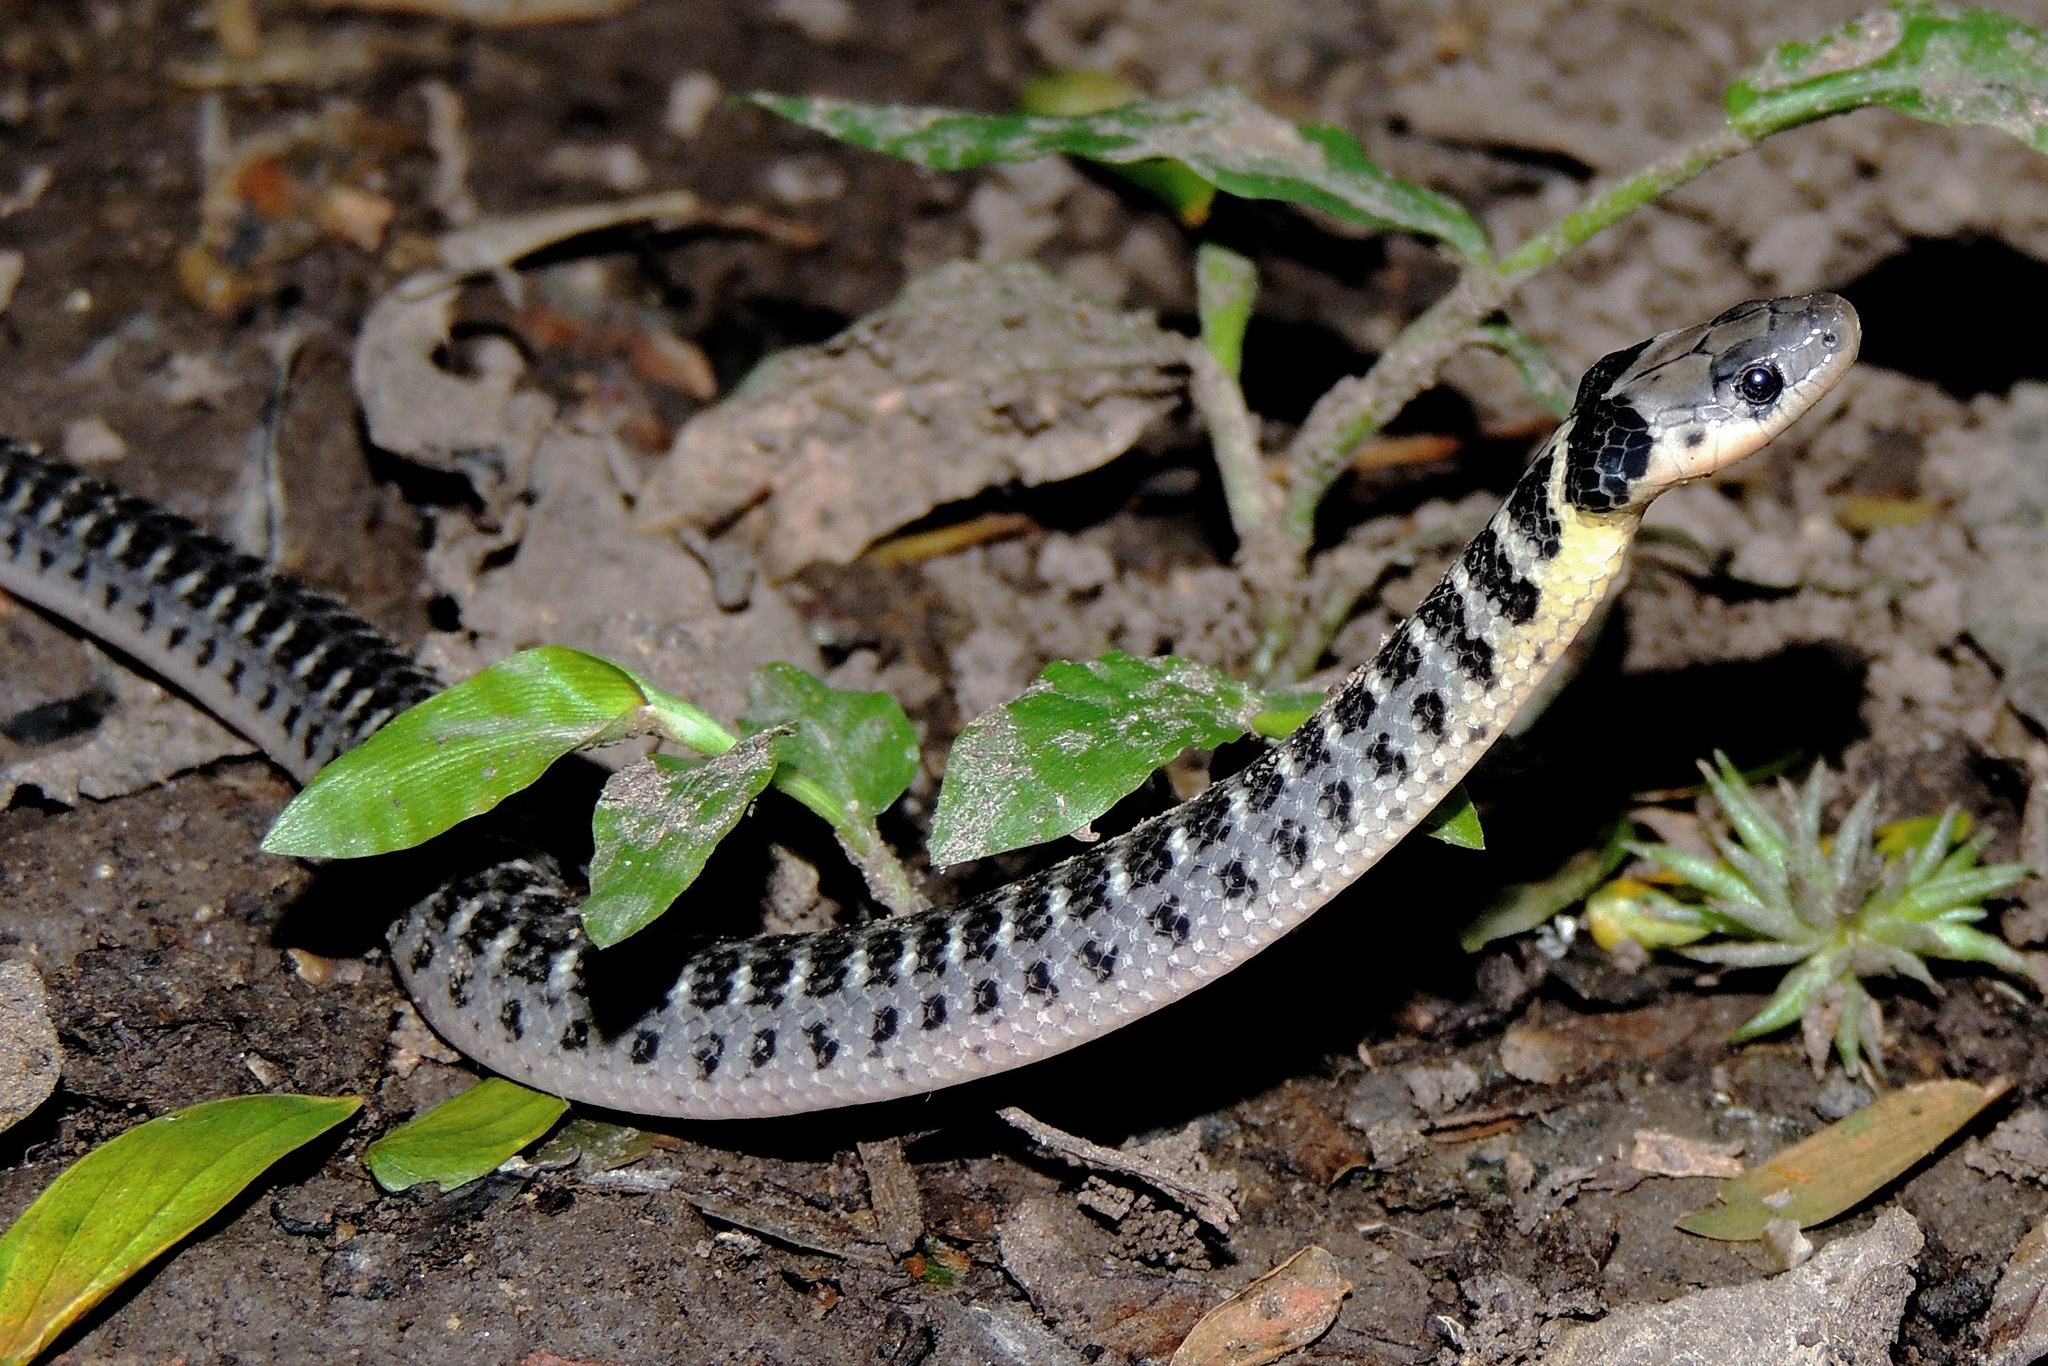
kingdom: Animalia
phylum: Chordata
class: Squamata
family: Colubridae
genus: Erythrolamprus
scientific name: Erythrolamprus poecilogyrus
